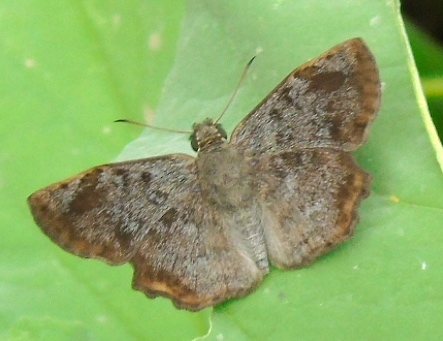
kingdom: Animalia
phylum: Arthropoda
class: Insecta
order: Lepidoptera
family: Hesperiidae
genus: Antigonus
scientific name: Antigonus erosus
